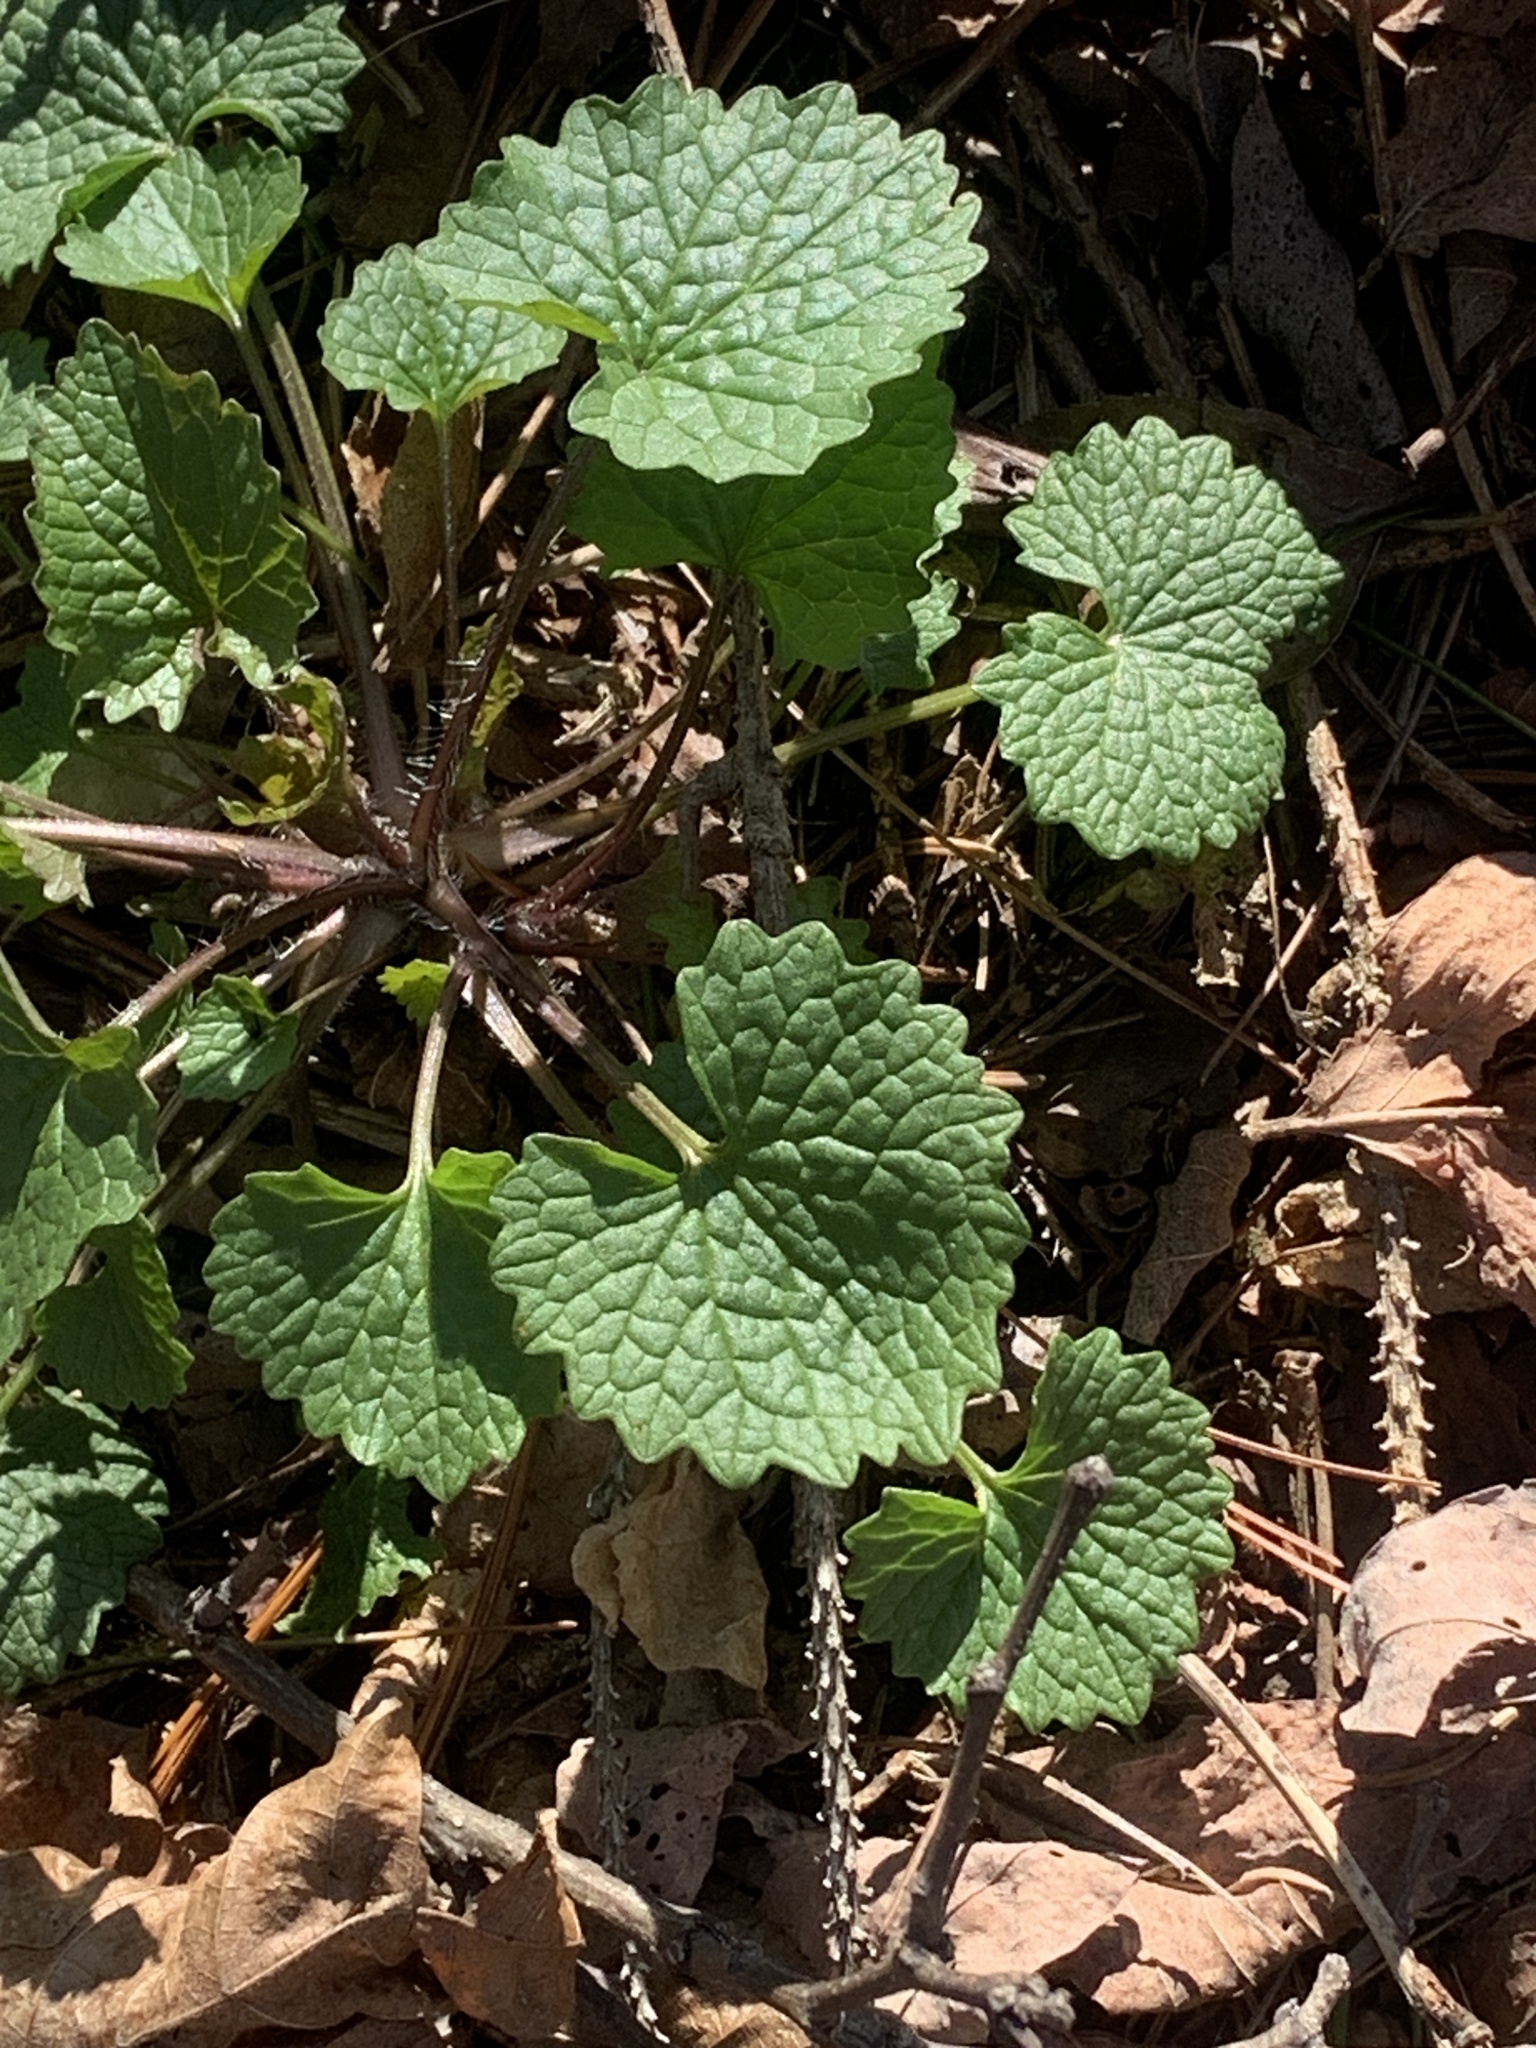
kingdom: Plantae
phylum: Tracheophyta
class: Magnoliopsida
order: Brassicales
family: Brassicaceae
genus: Alliaria
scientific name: Alliaria petiolata
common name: Garlic mustard
